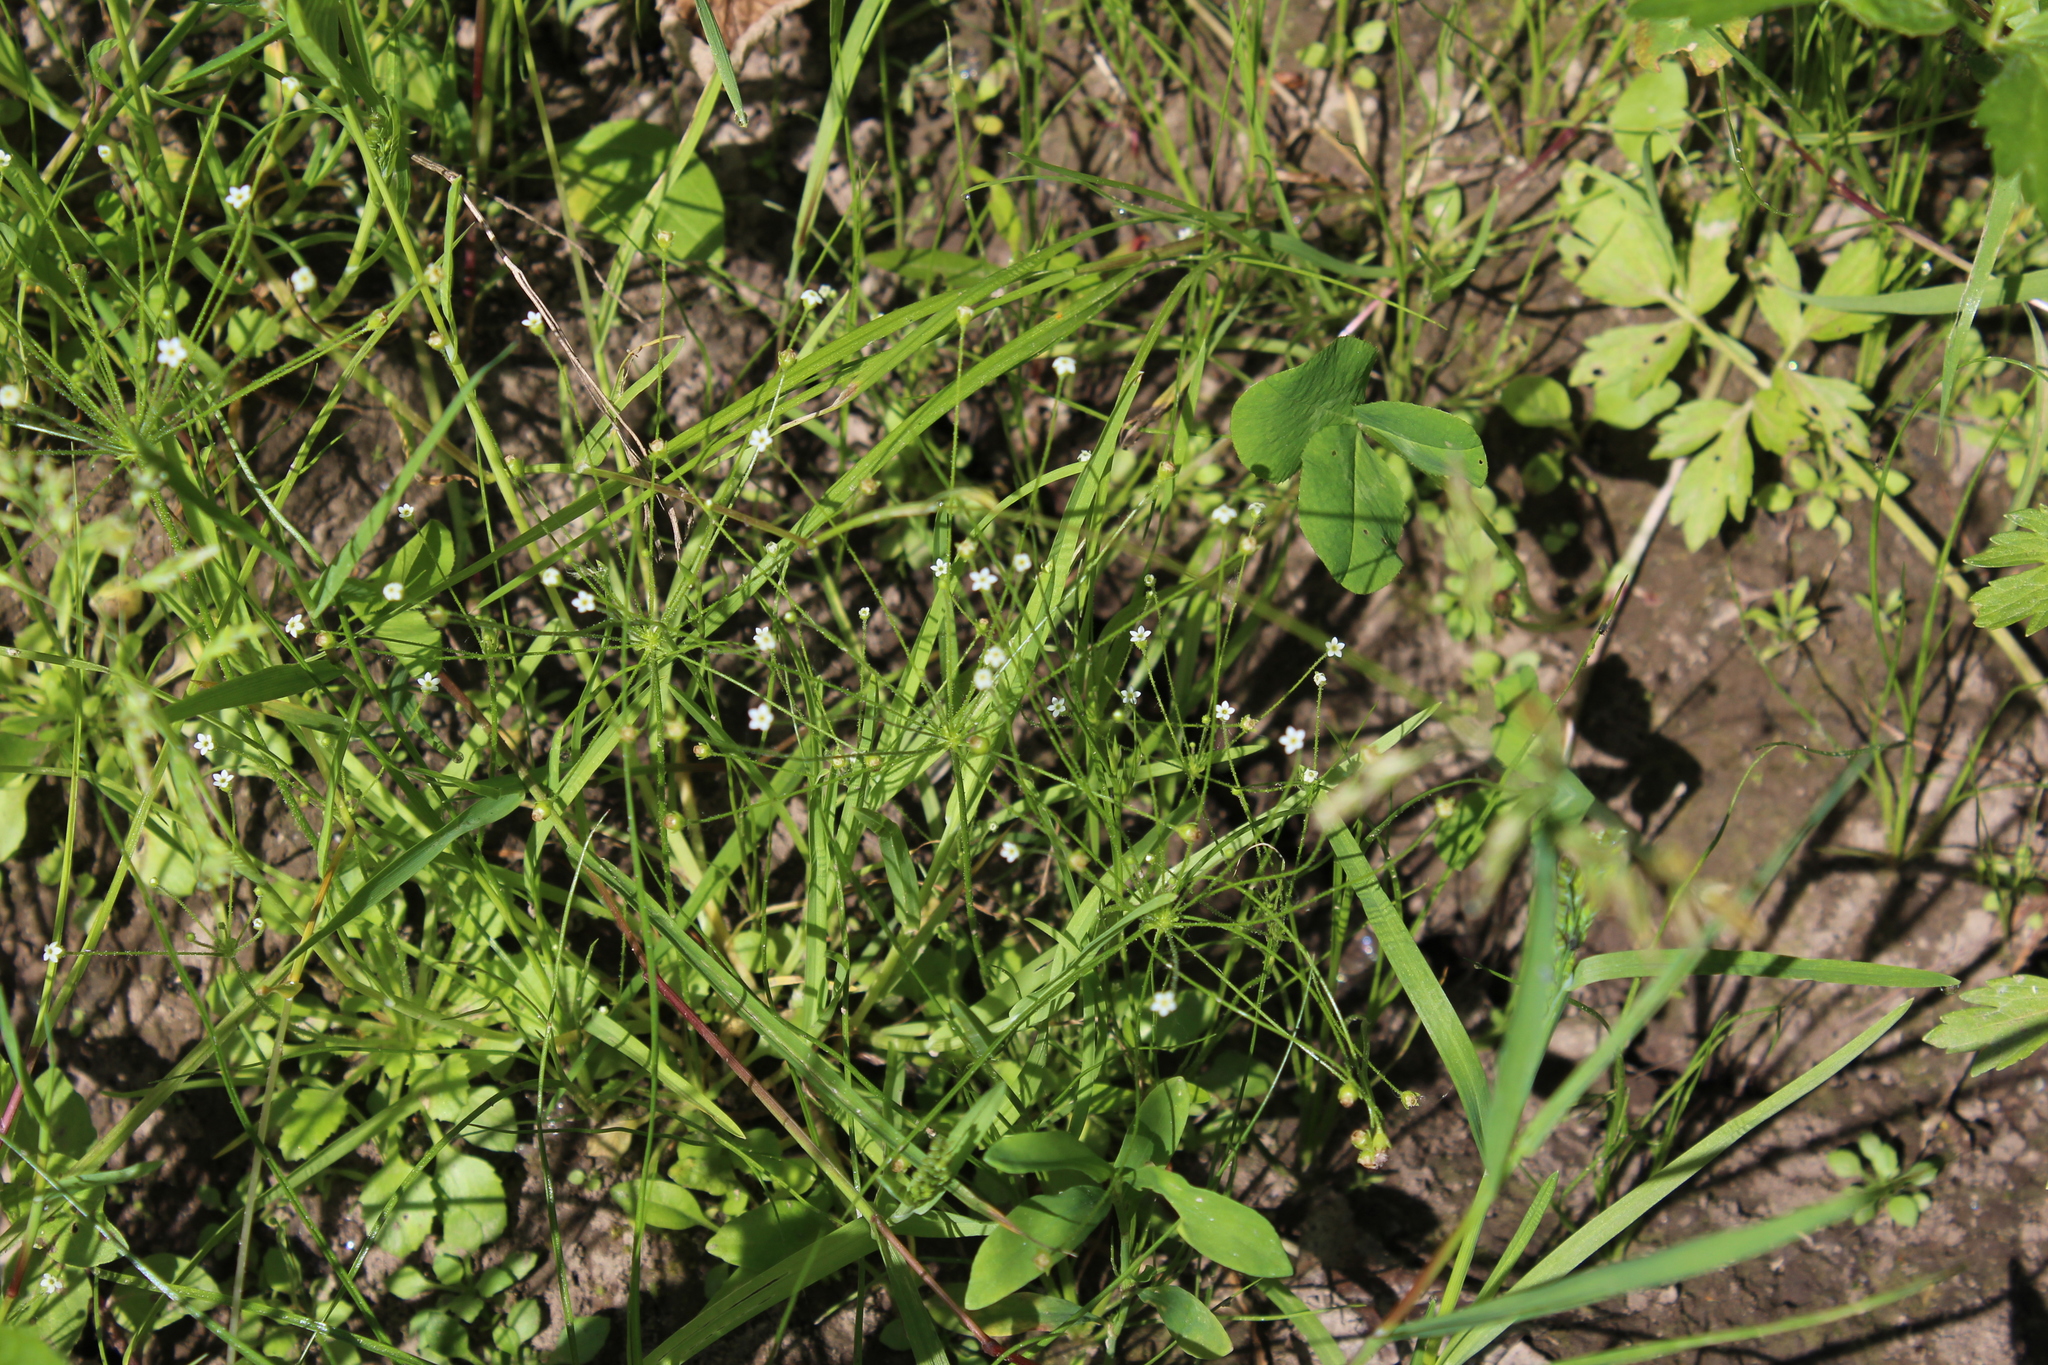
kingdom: Plantae
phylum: Tracheophyta
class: Magnoliopsida
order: Ericales
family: Primulaceae
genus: Androsace
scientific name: Androsace filiformis
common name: Filiform rock jasmine
